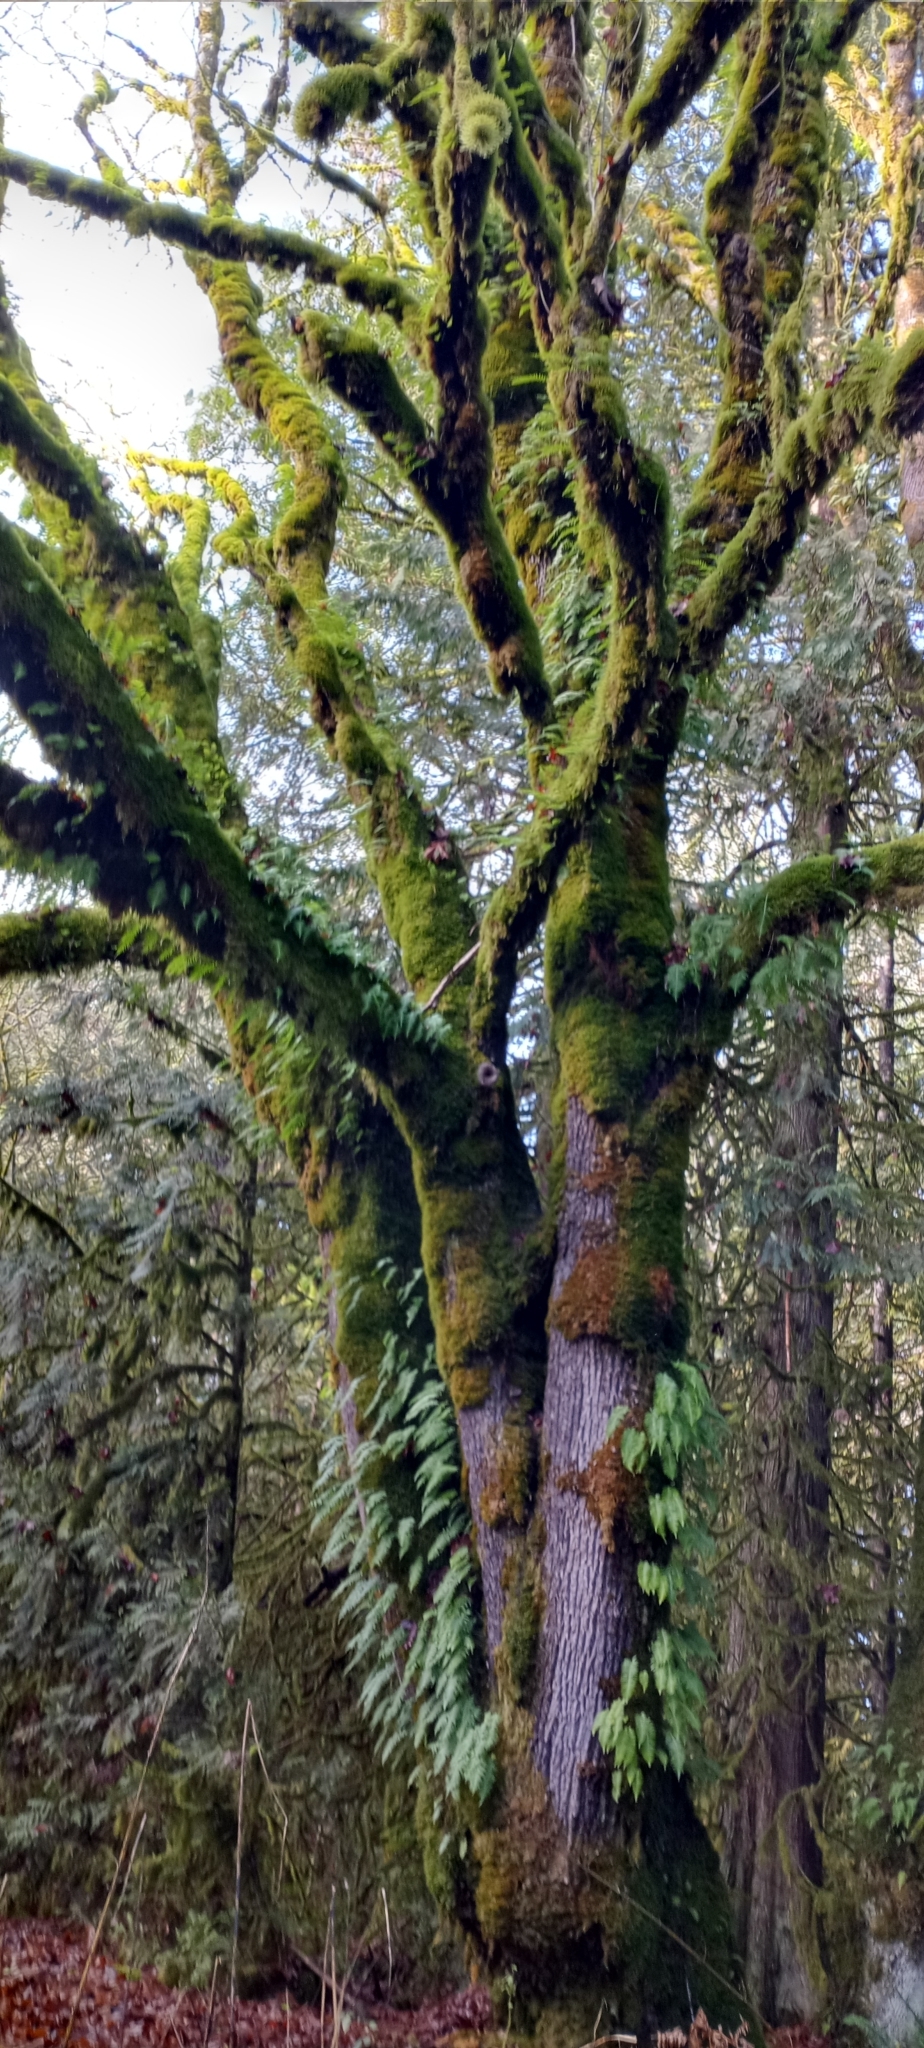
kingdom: Plantae
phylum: Tracheophyta
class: Magnoliopsida
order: Sapindales
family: Sapindaceae
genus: Acer
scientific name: Acer macrophyllum
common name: Oregon maple
